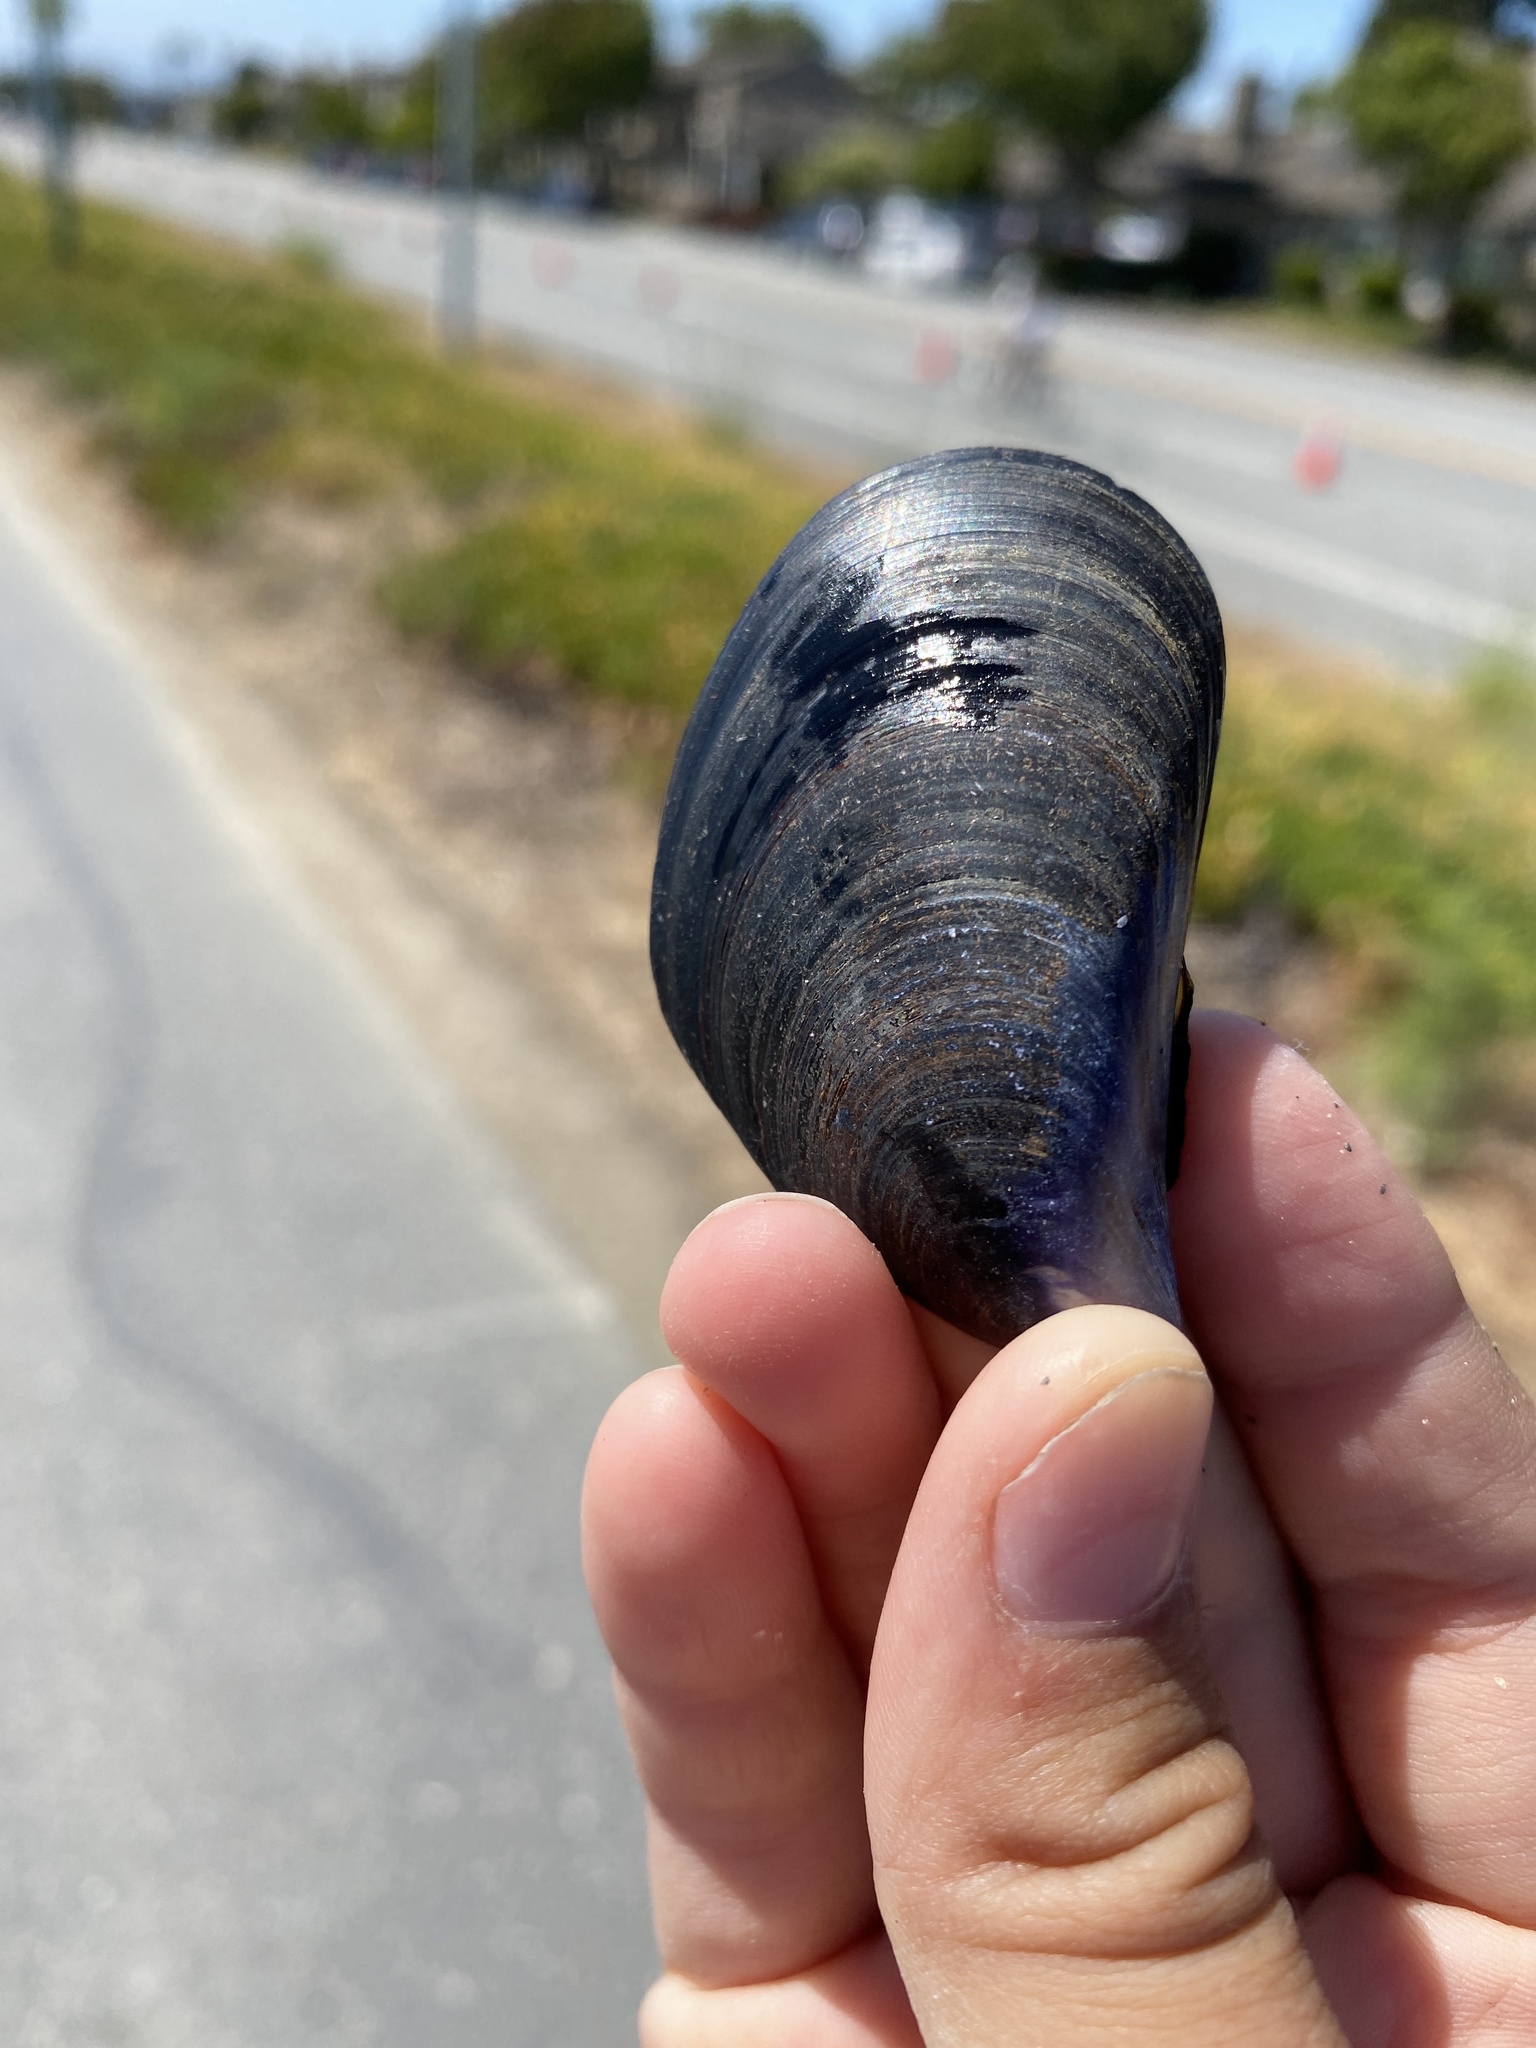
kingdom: Animalia
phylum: Mollusca
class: Bivalvia
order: Mytilida
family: Mytilidae
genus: Mytilus
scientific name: Mytilus
